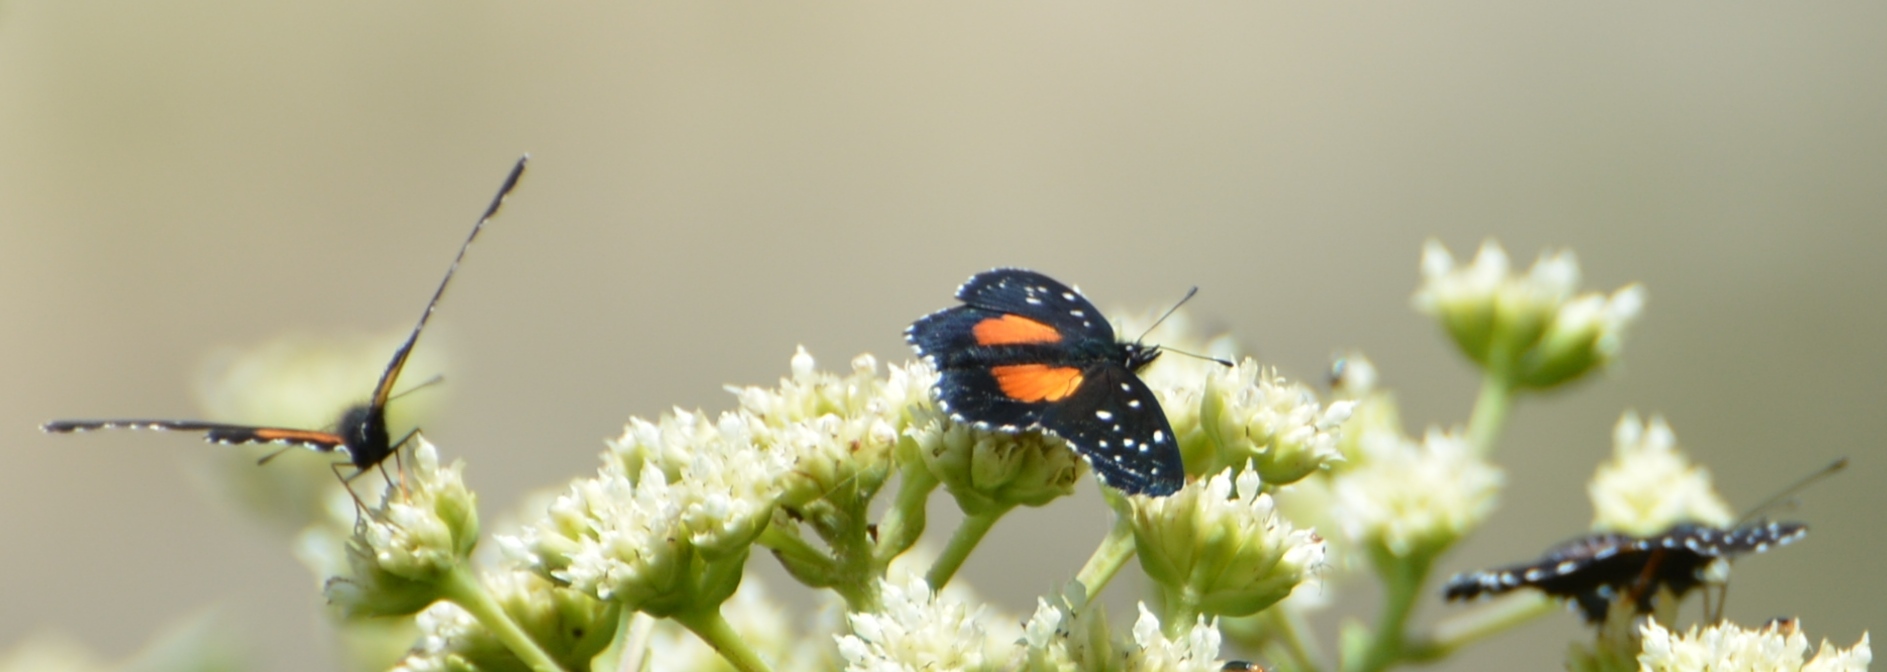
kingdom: Animalia
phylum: Arthropoda
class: Insecta
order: Lepidoptera
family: Nymphalidae
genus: Chlosyne
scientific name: Chlosyne rosita
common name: Rosita patch
